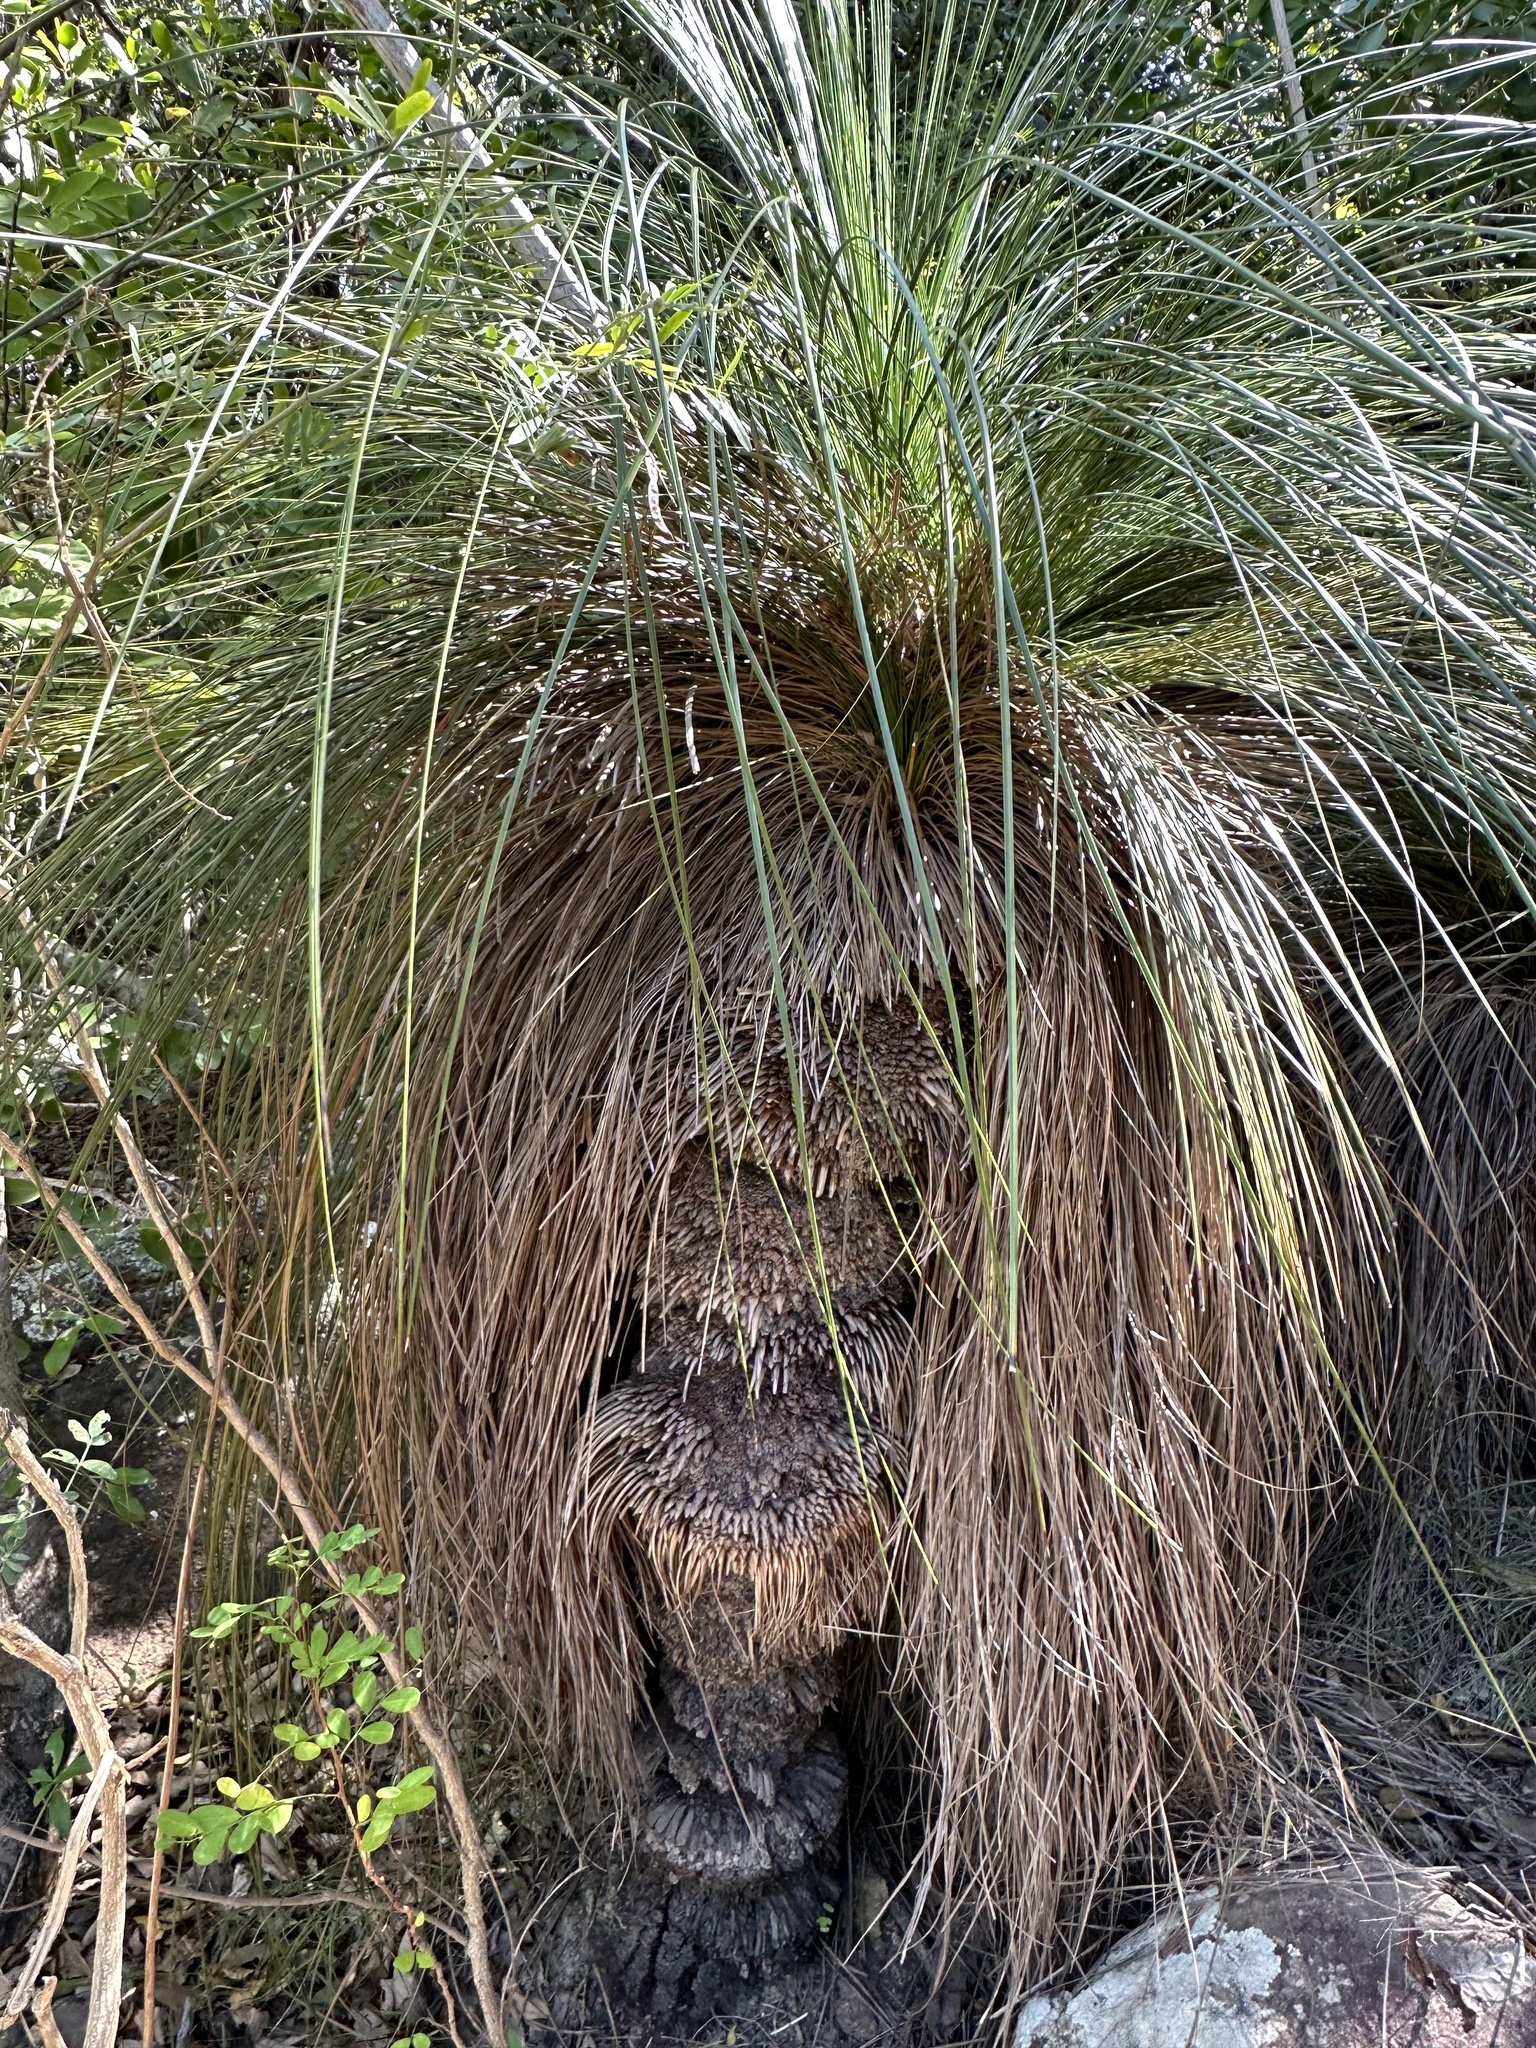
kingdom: Plantae
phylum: Tracheophyta
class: Liliopsida
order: Asparagales
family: Asphodelaceae
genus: Xanthorrhoea
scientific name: Xanthorrhoea latifolia
